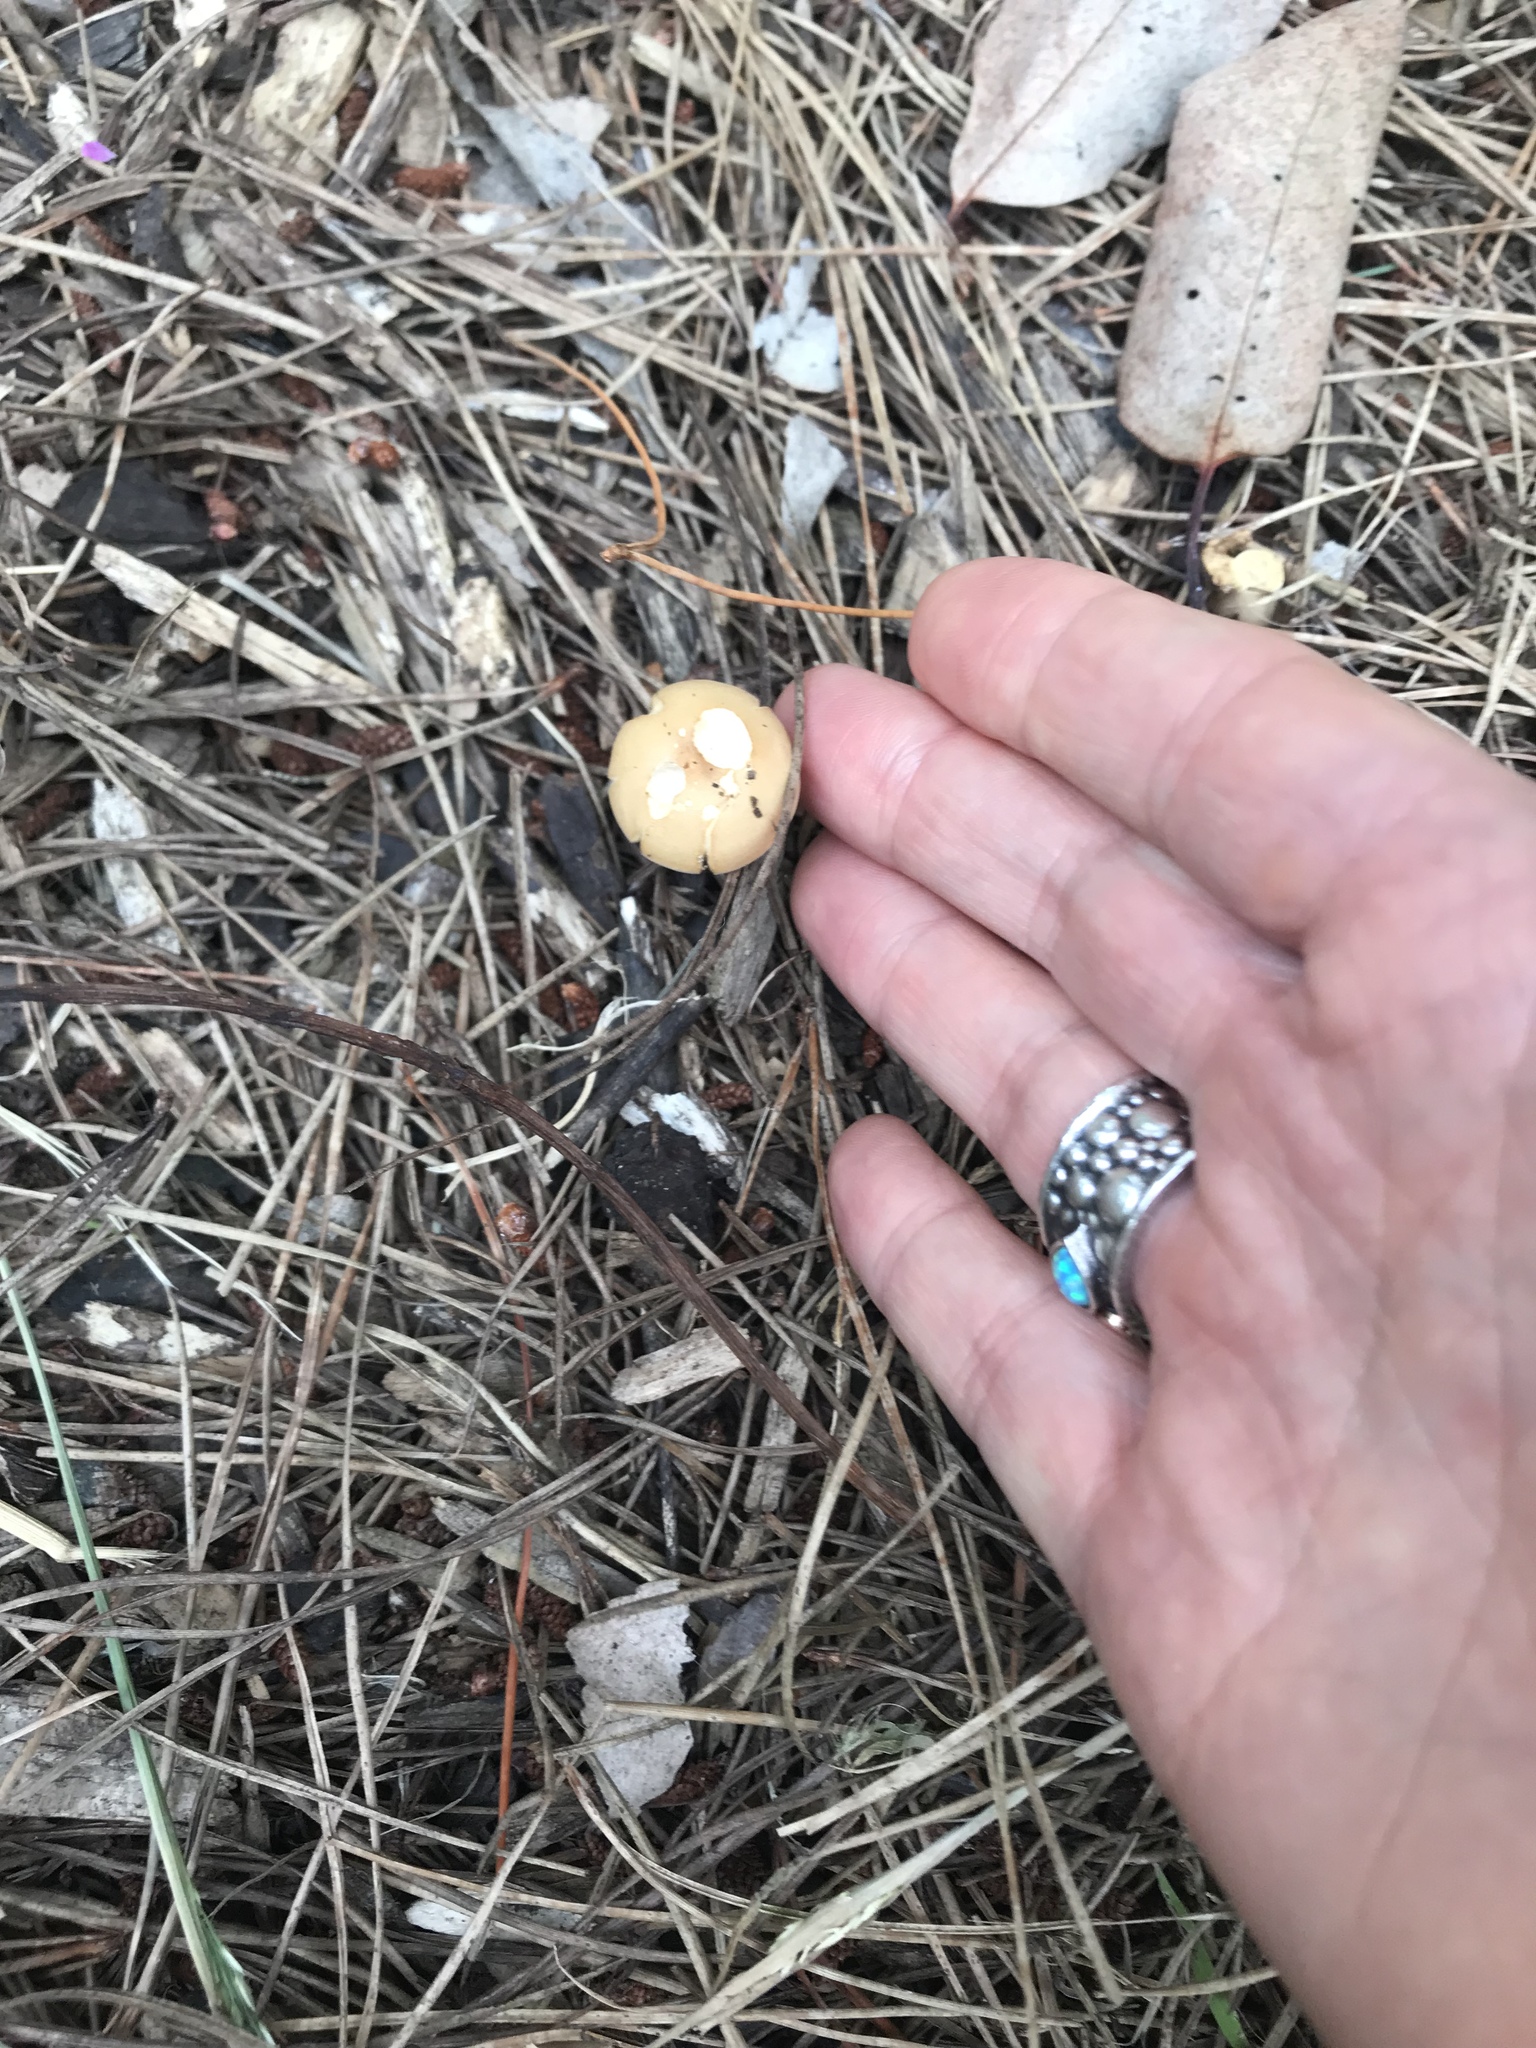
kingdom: Fungi
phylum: Basidiomycota
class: Agaricomycetes
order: Agaricales
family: Strophariaceae
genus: Agrocybe
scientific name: Agrocybe putaminum
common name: Mulch fieldcap
